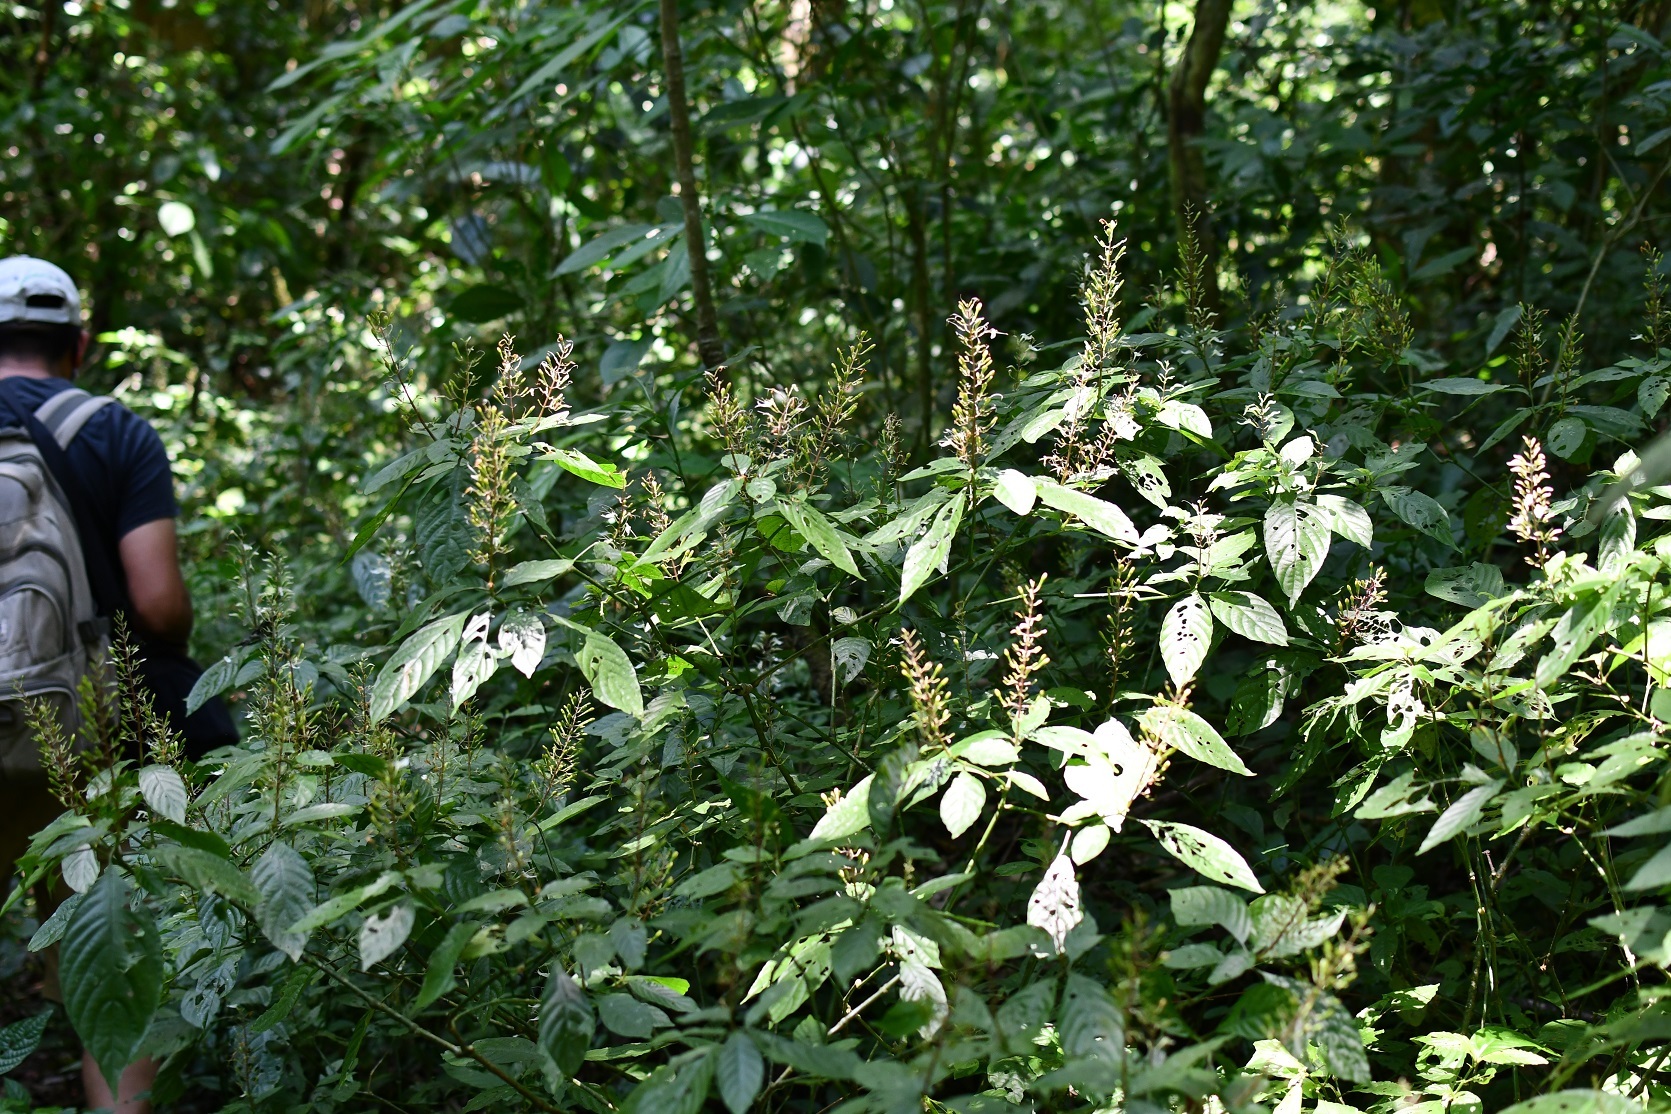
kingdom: Plantae
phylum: Tracheophyta
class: Magnoliopsida
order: Lamiales
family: Acanthaceae
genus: Stenostephanus
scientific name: Stenostephanus silvaticus
